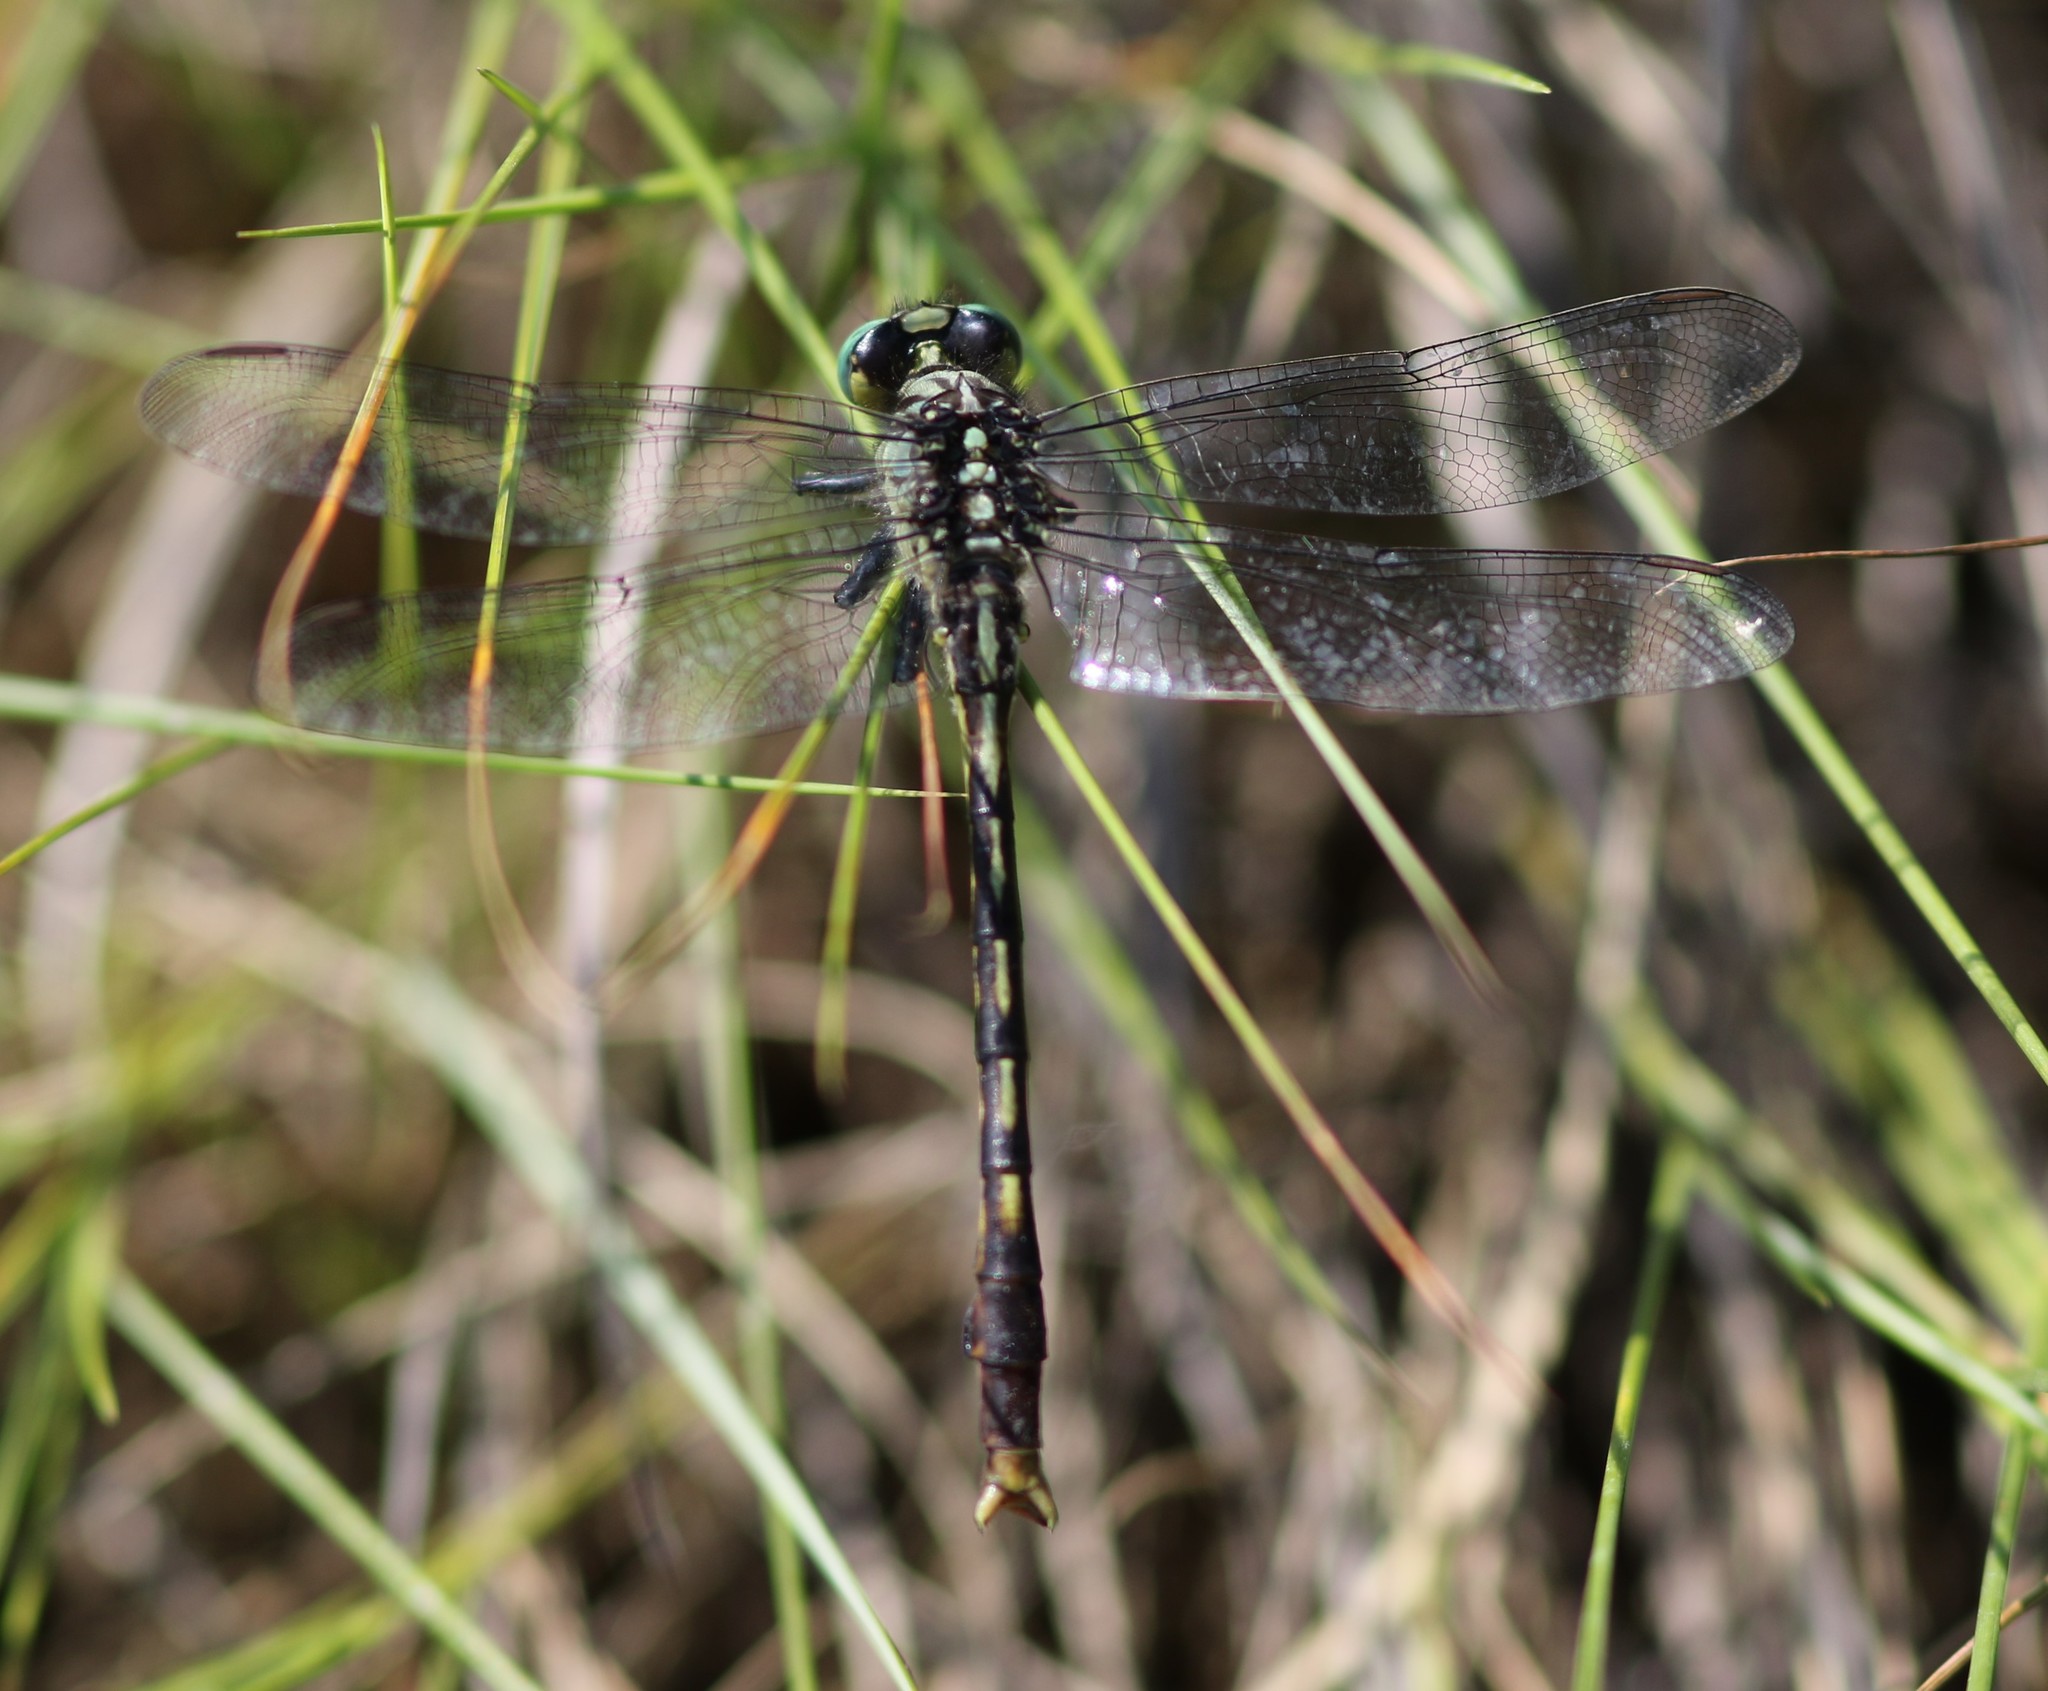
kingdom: Animalia
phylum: Arthropoda
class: Insecta
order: Odonata
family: Gomphidae
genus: Arigomphus
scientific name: Arigomphus villosipes
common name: Unicorn clubtail
